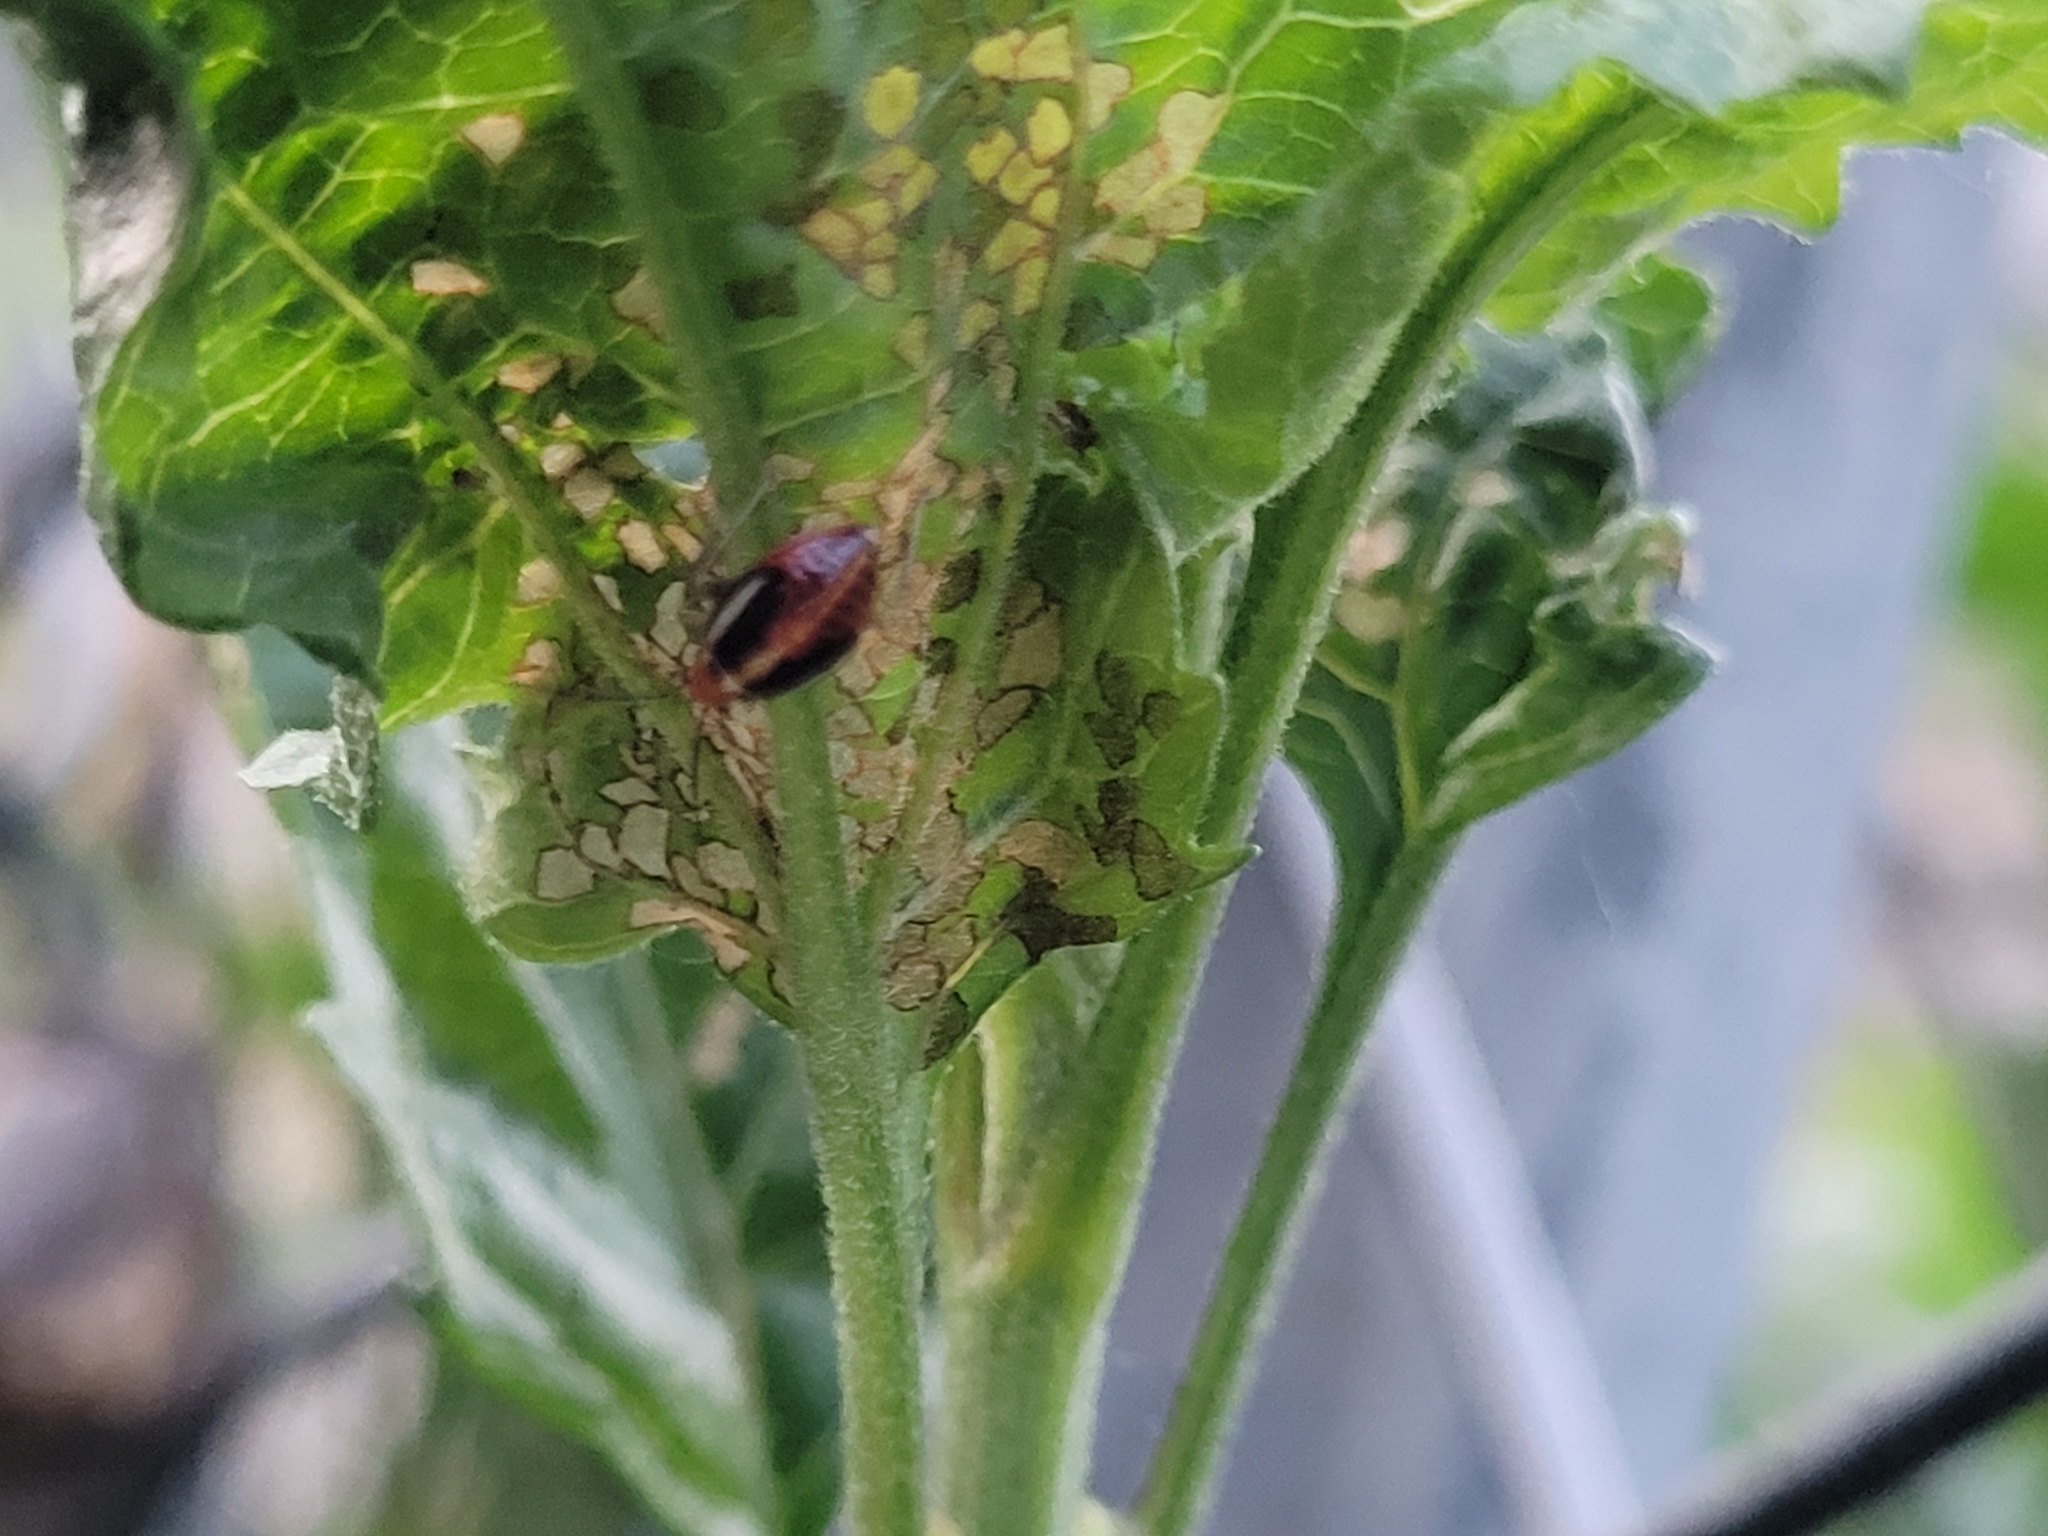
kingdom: Animalia
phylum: Arthropoda
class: Insecta
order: Hemiptera
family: Miridae
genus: Poecilocapsus
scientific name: Poecilocapsus lineatus
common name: Four-lined plant bug
